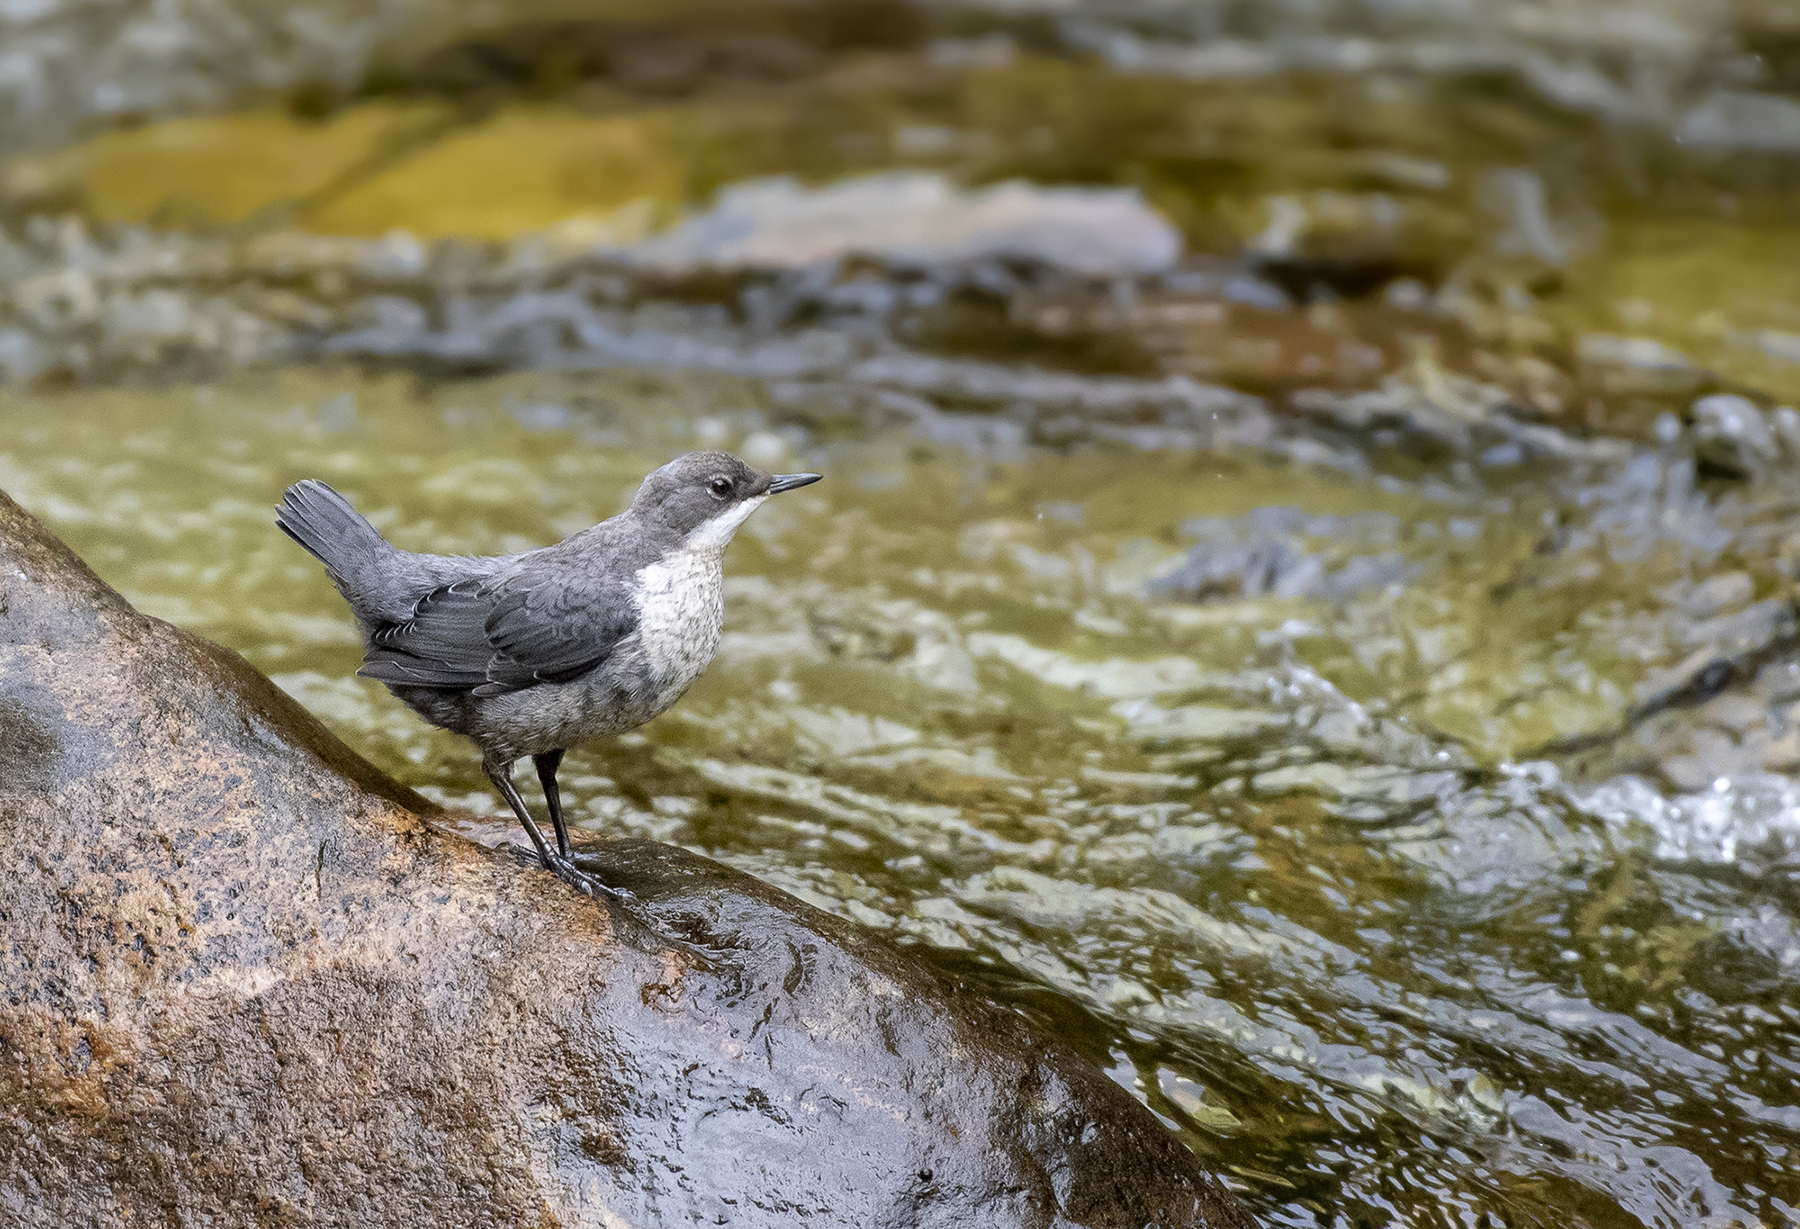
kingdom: Animalia
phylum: Chordata
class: Aves
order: Passeriformes
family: Cinclidae
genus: Cinclus
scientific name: Cinclus cinclus
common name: White-throated dipper
